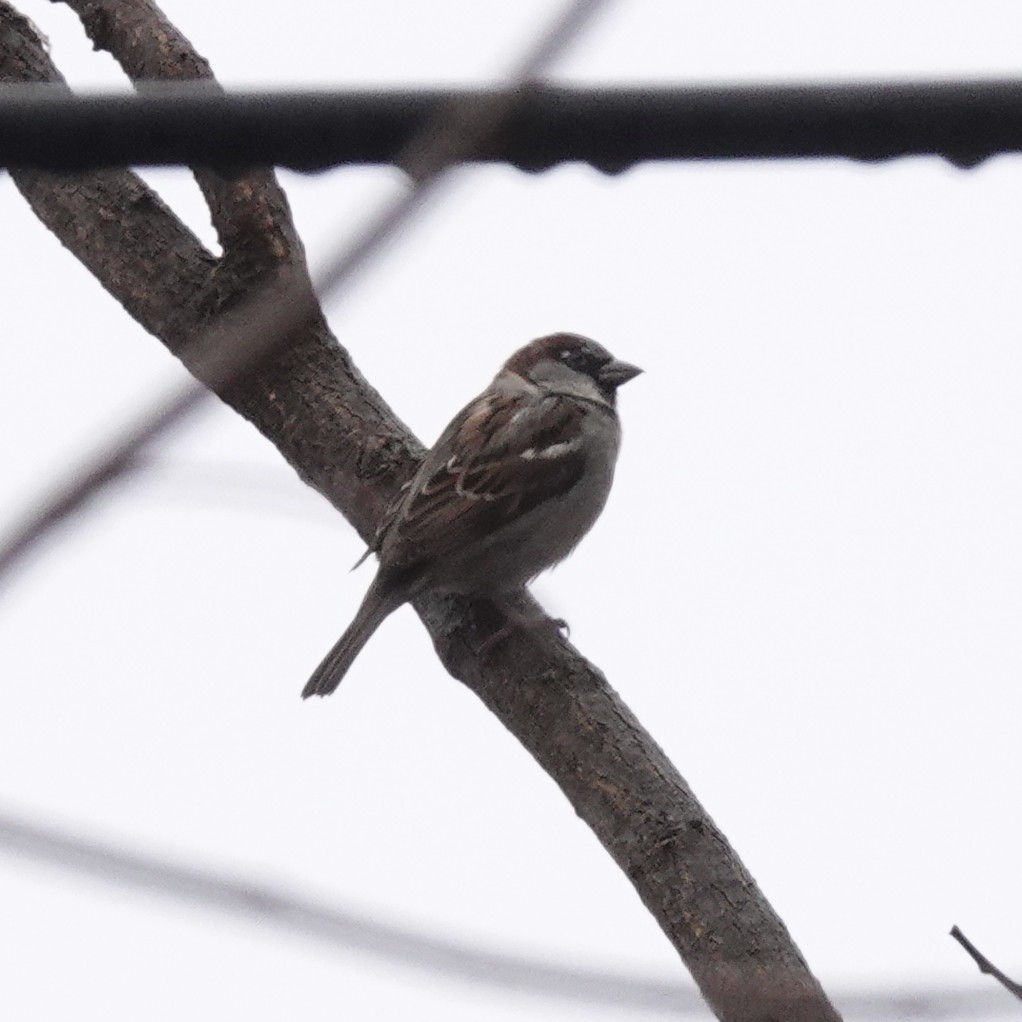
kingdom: Animalia
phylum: Chordata
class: Aves
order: Passeriformes
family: Passeridae
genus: Passer
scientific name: Passer domesticus
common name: House sparrow
